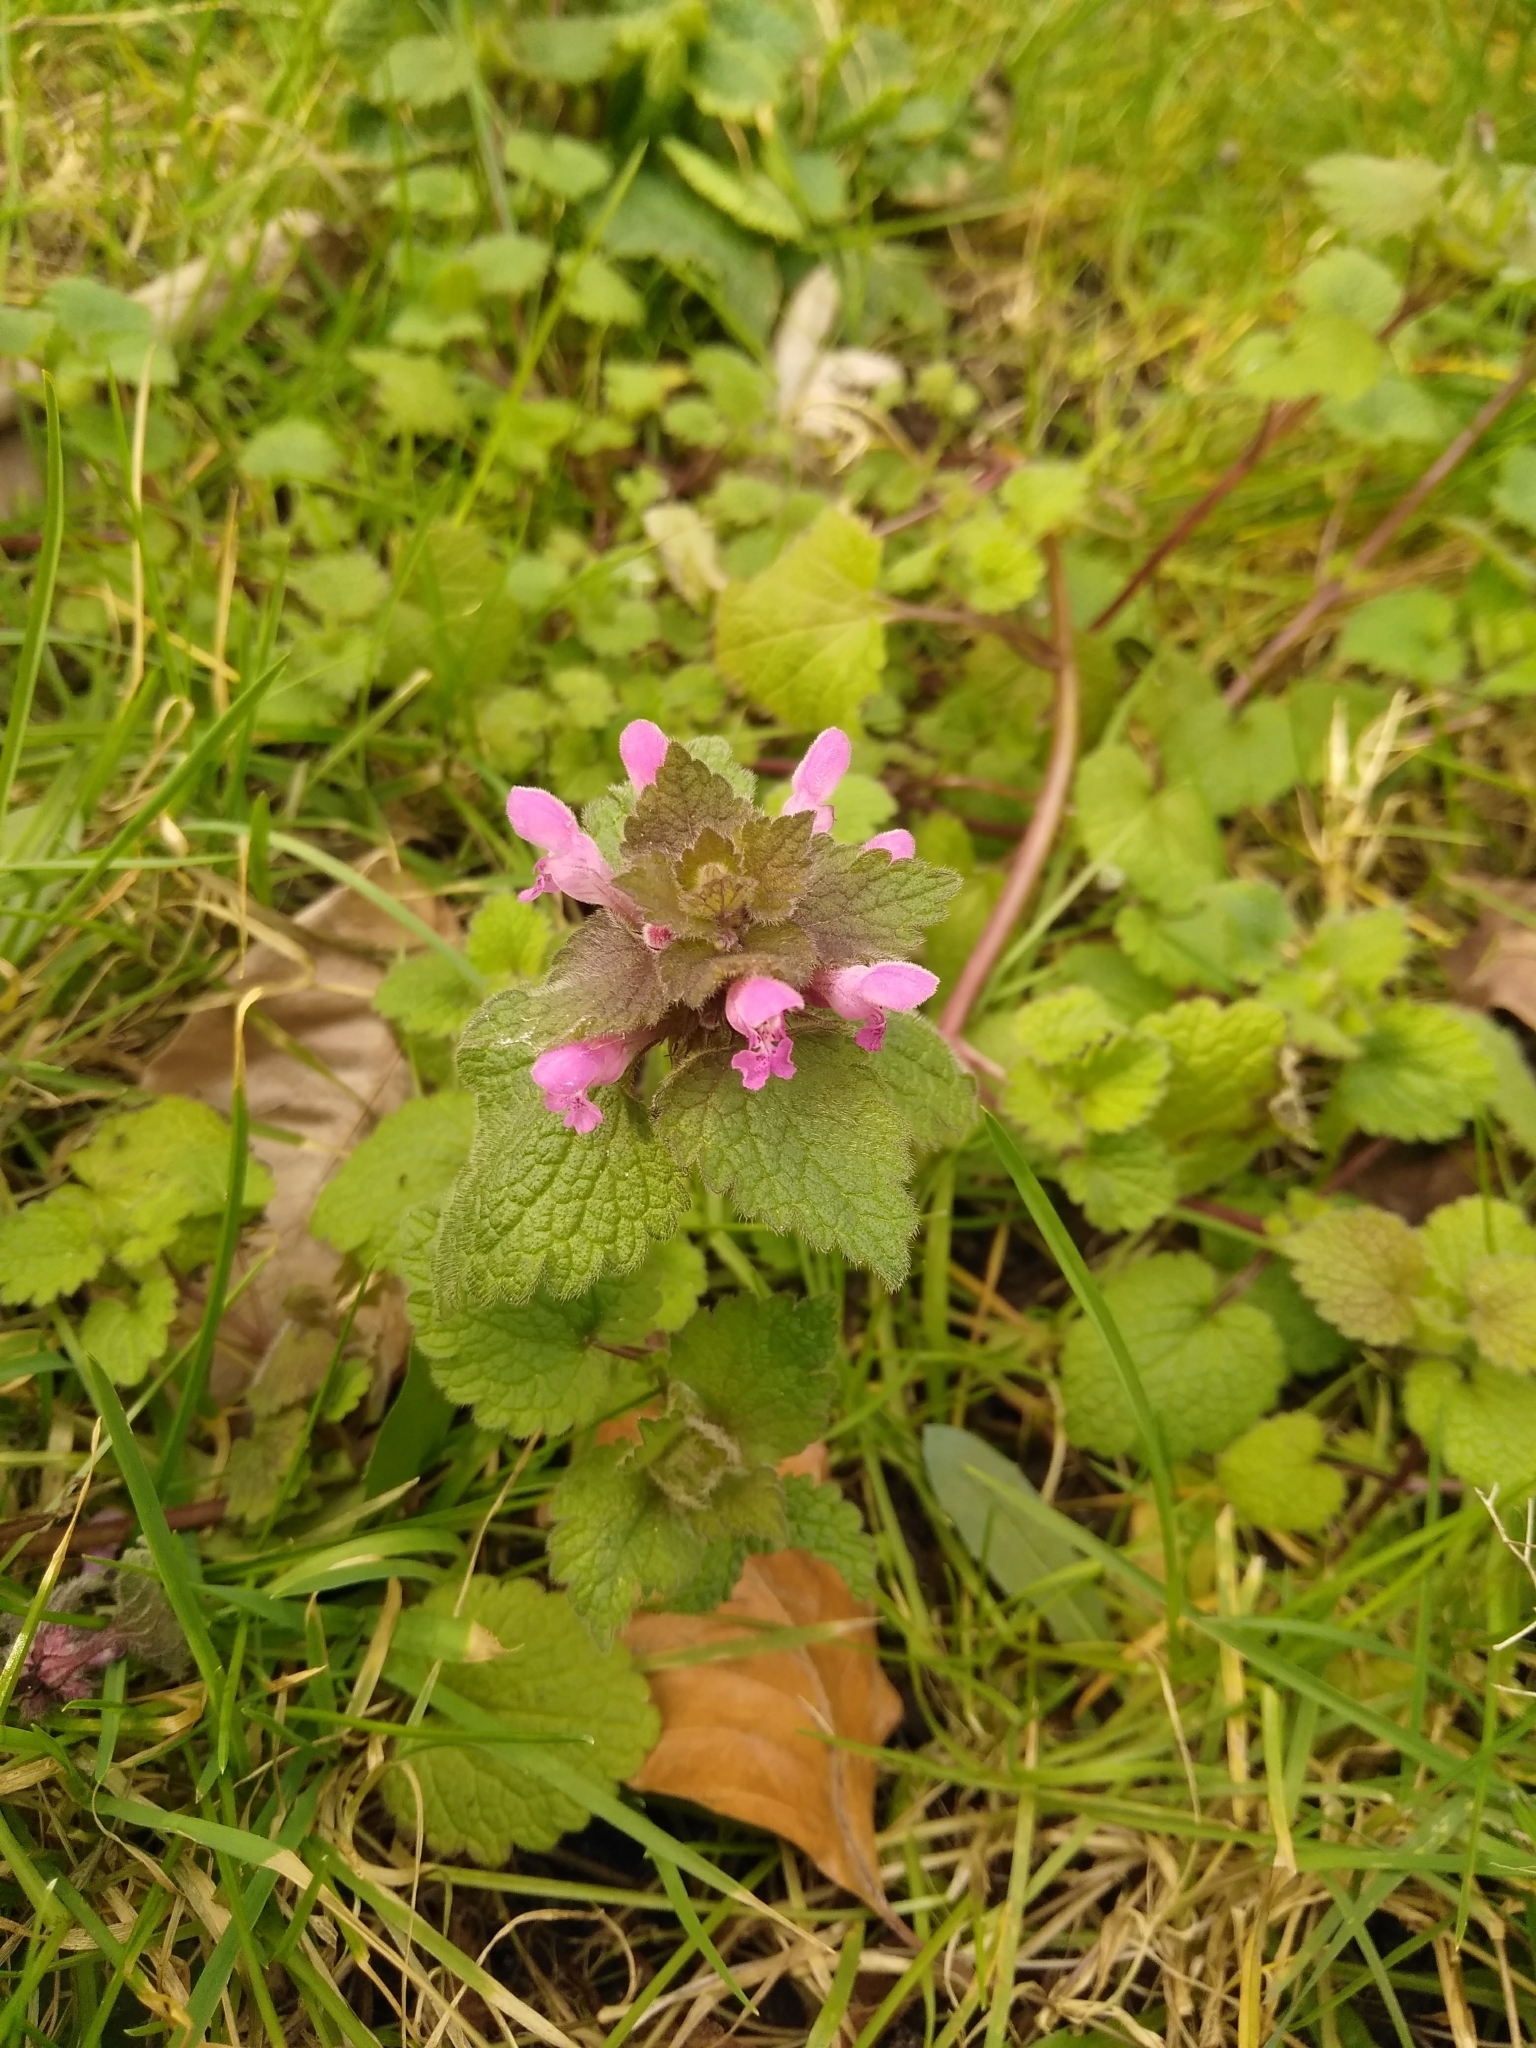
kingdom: Plantae
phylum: Tracheophyta
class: Magnoliopsida
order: Lamiales
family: Lamiaceae
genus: Lamium
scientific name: Lamium purpureum
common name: Red dead-nettle
